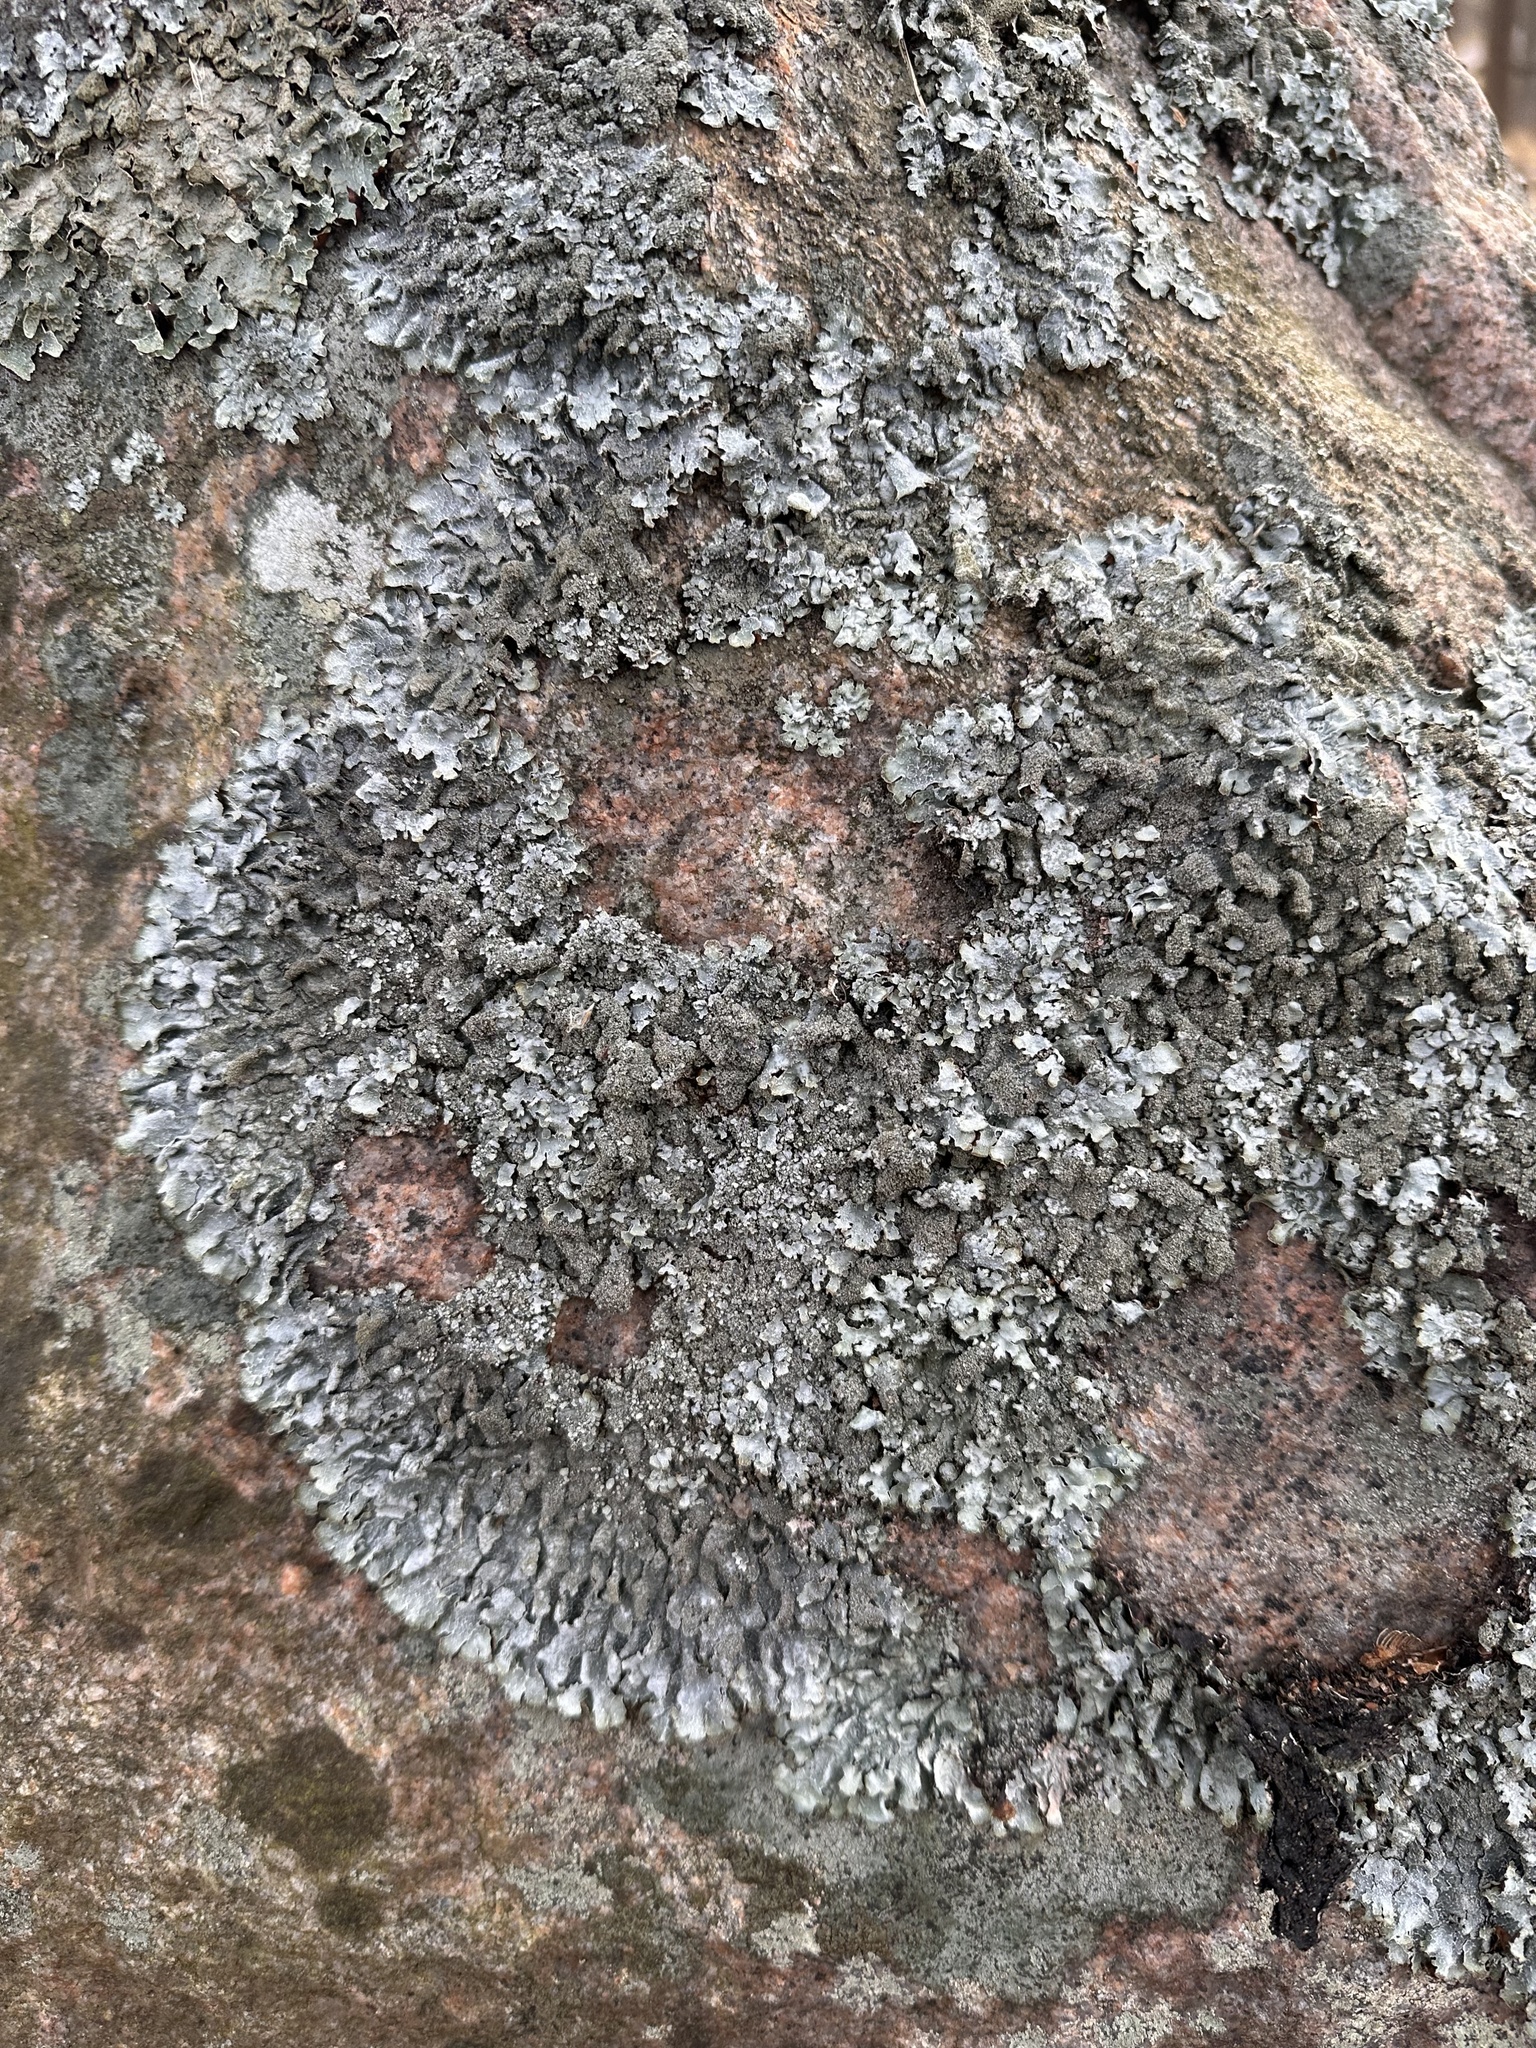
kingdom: Fungi
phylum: Ascomycota
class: Lecanoromycetes
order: Lecanorales
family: Parmeliaceae
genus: Parmelia
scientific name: Parmelia saxatilis
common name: Salted shield lichen
